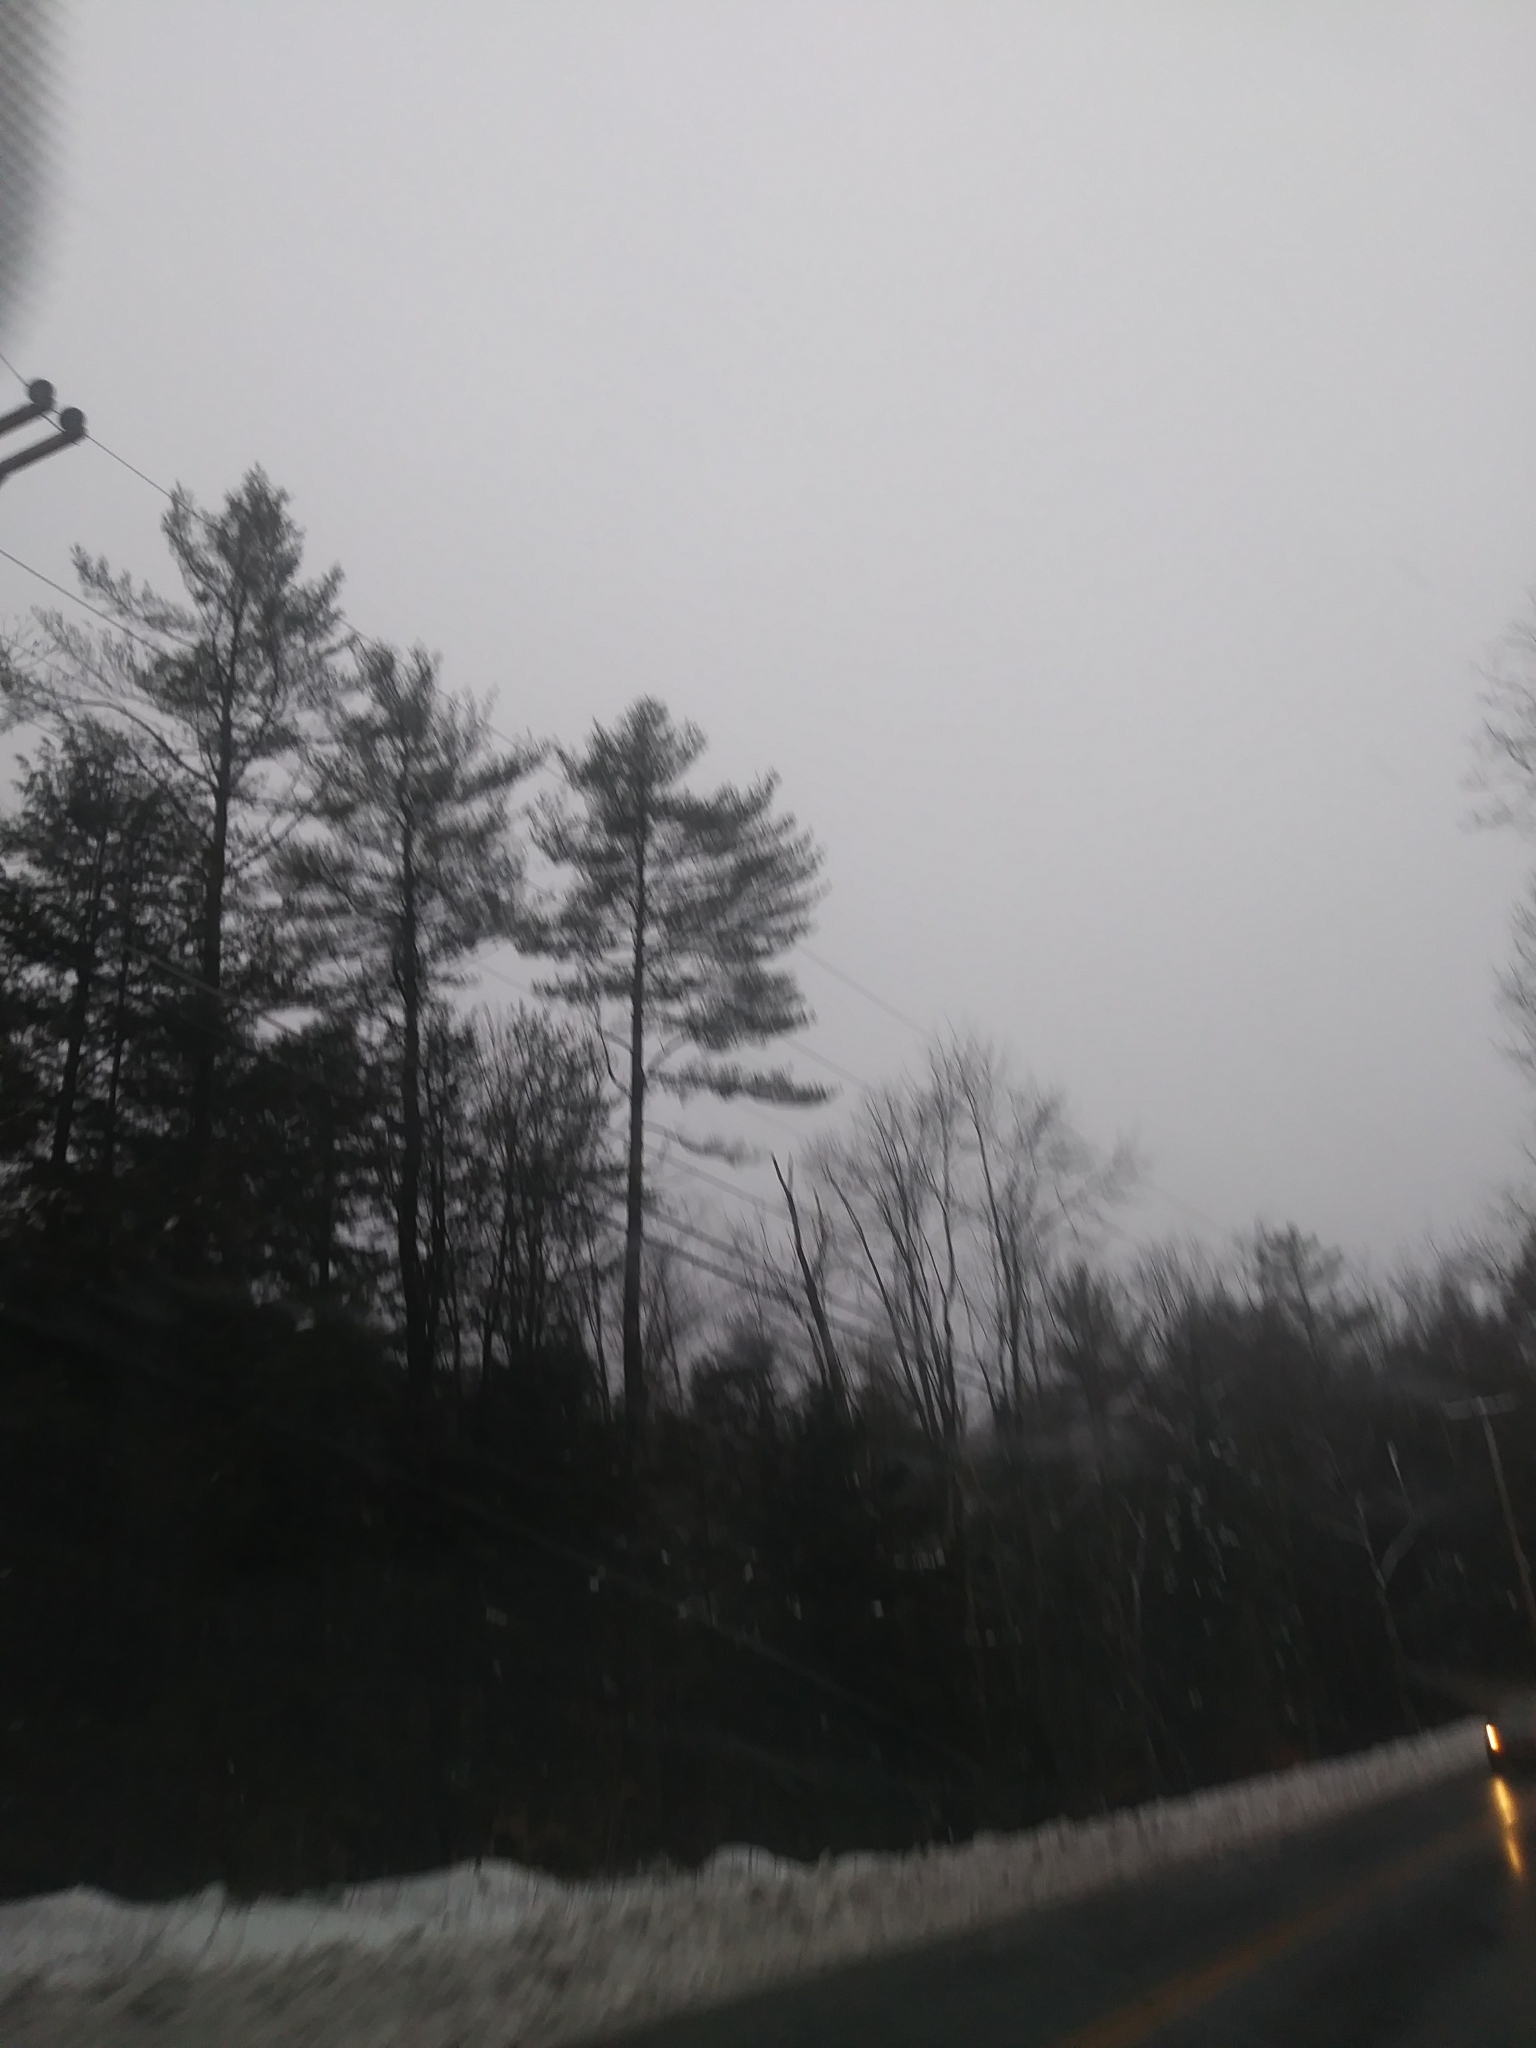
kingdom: Plantae
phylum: Tracheophyta
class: Pinopsida
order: Pinales
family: Pinaceae
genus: Pinus
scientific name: Pinus strobus
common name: Weymouth pine
